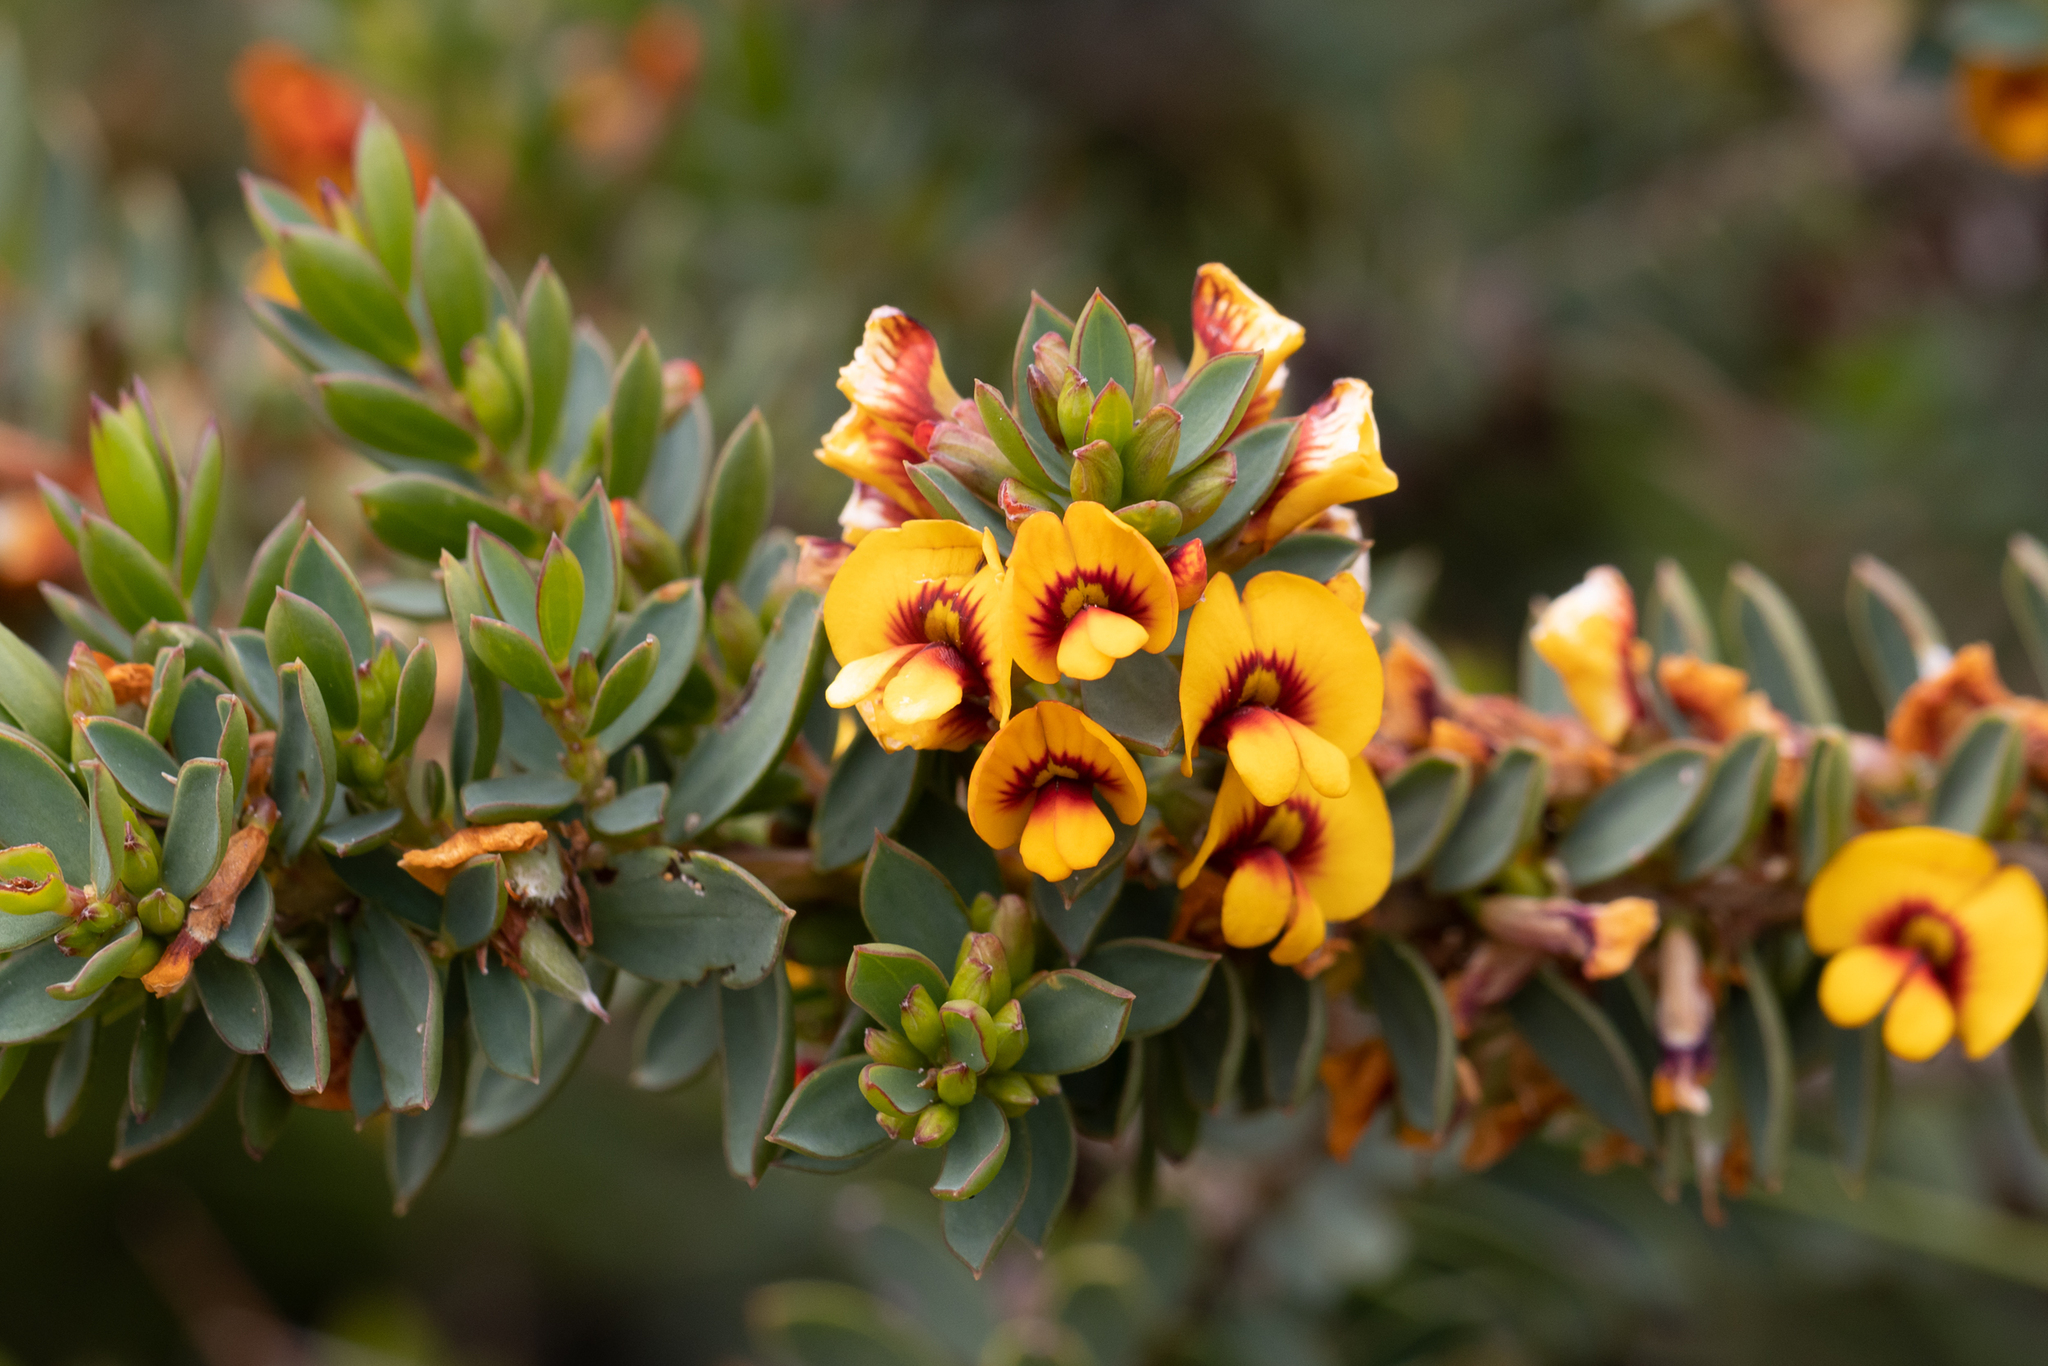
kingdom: Plantae
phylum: Tracheophyta
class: Magnoliopsida
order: Fabales
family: Fabaceae
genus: Eutaxia
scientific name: Eutaxia myrtifolia
